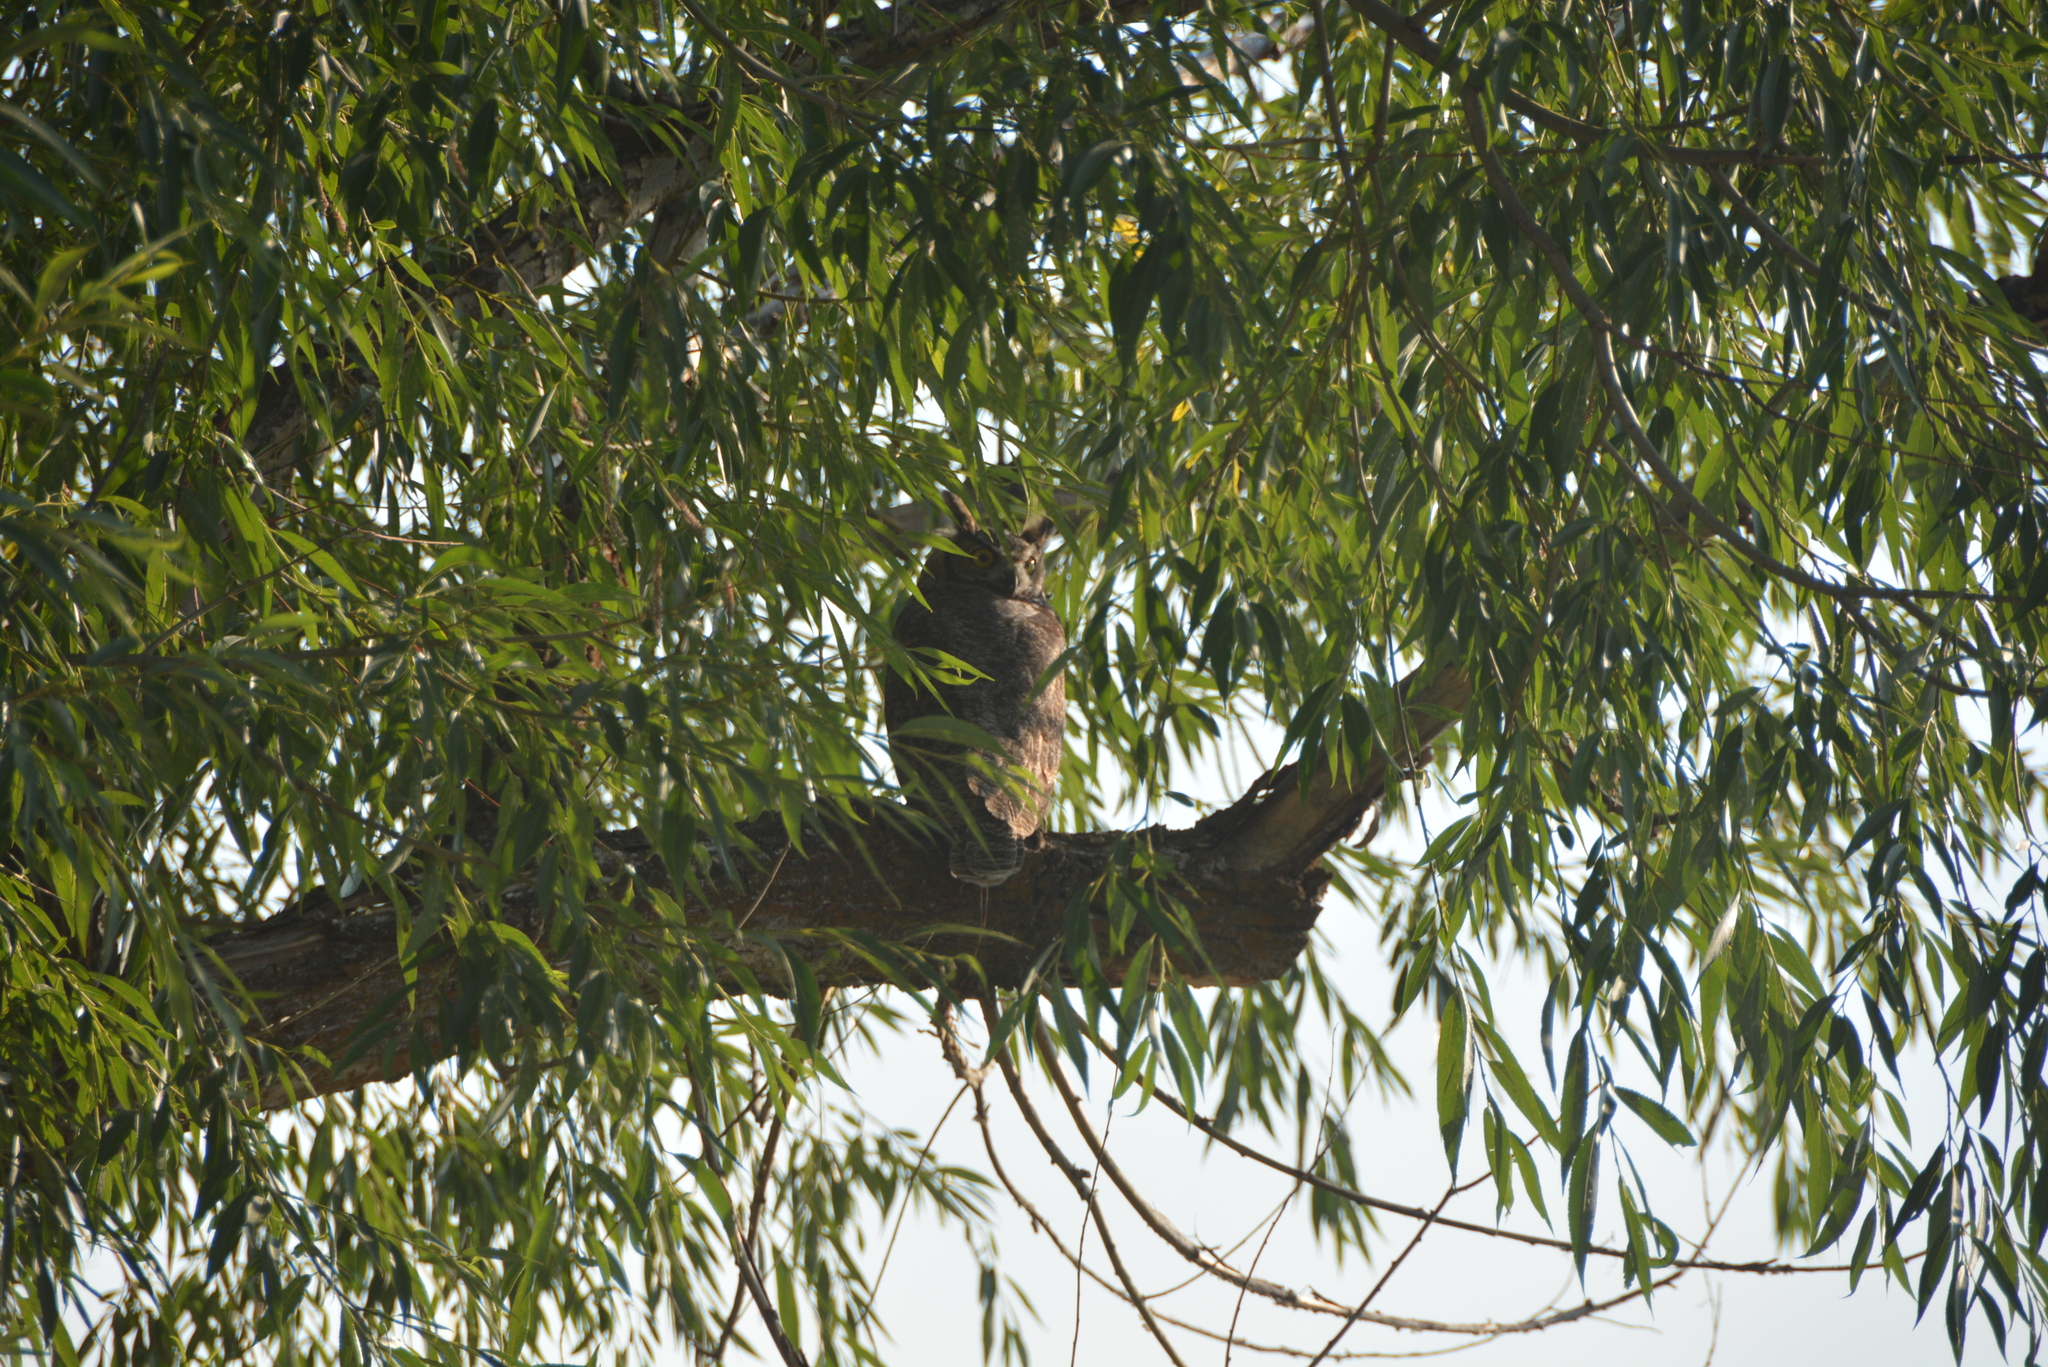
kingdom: Animalia
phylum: Chordata
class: Aves
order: Strigiformes
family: Strigidae
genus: Bubo
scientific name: Bubo virginianus
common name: Great horned owl
